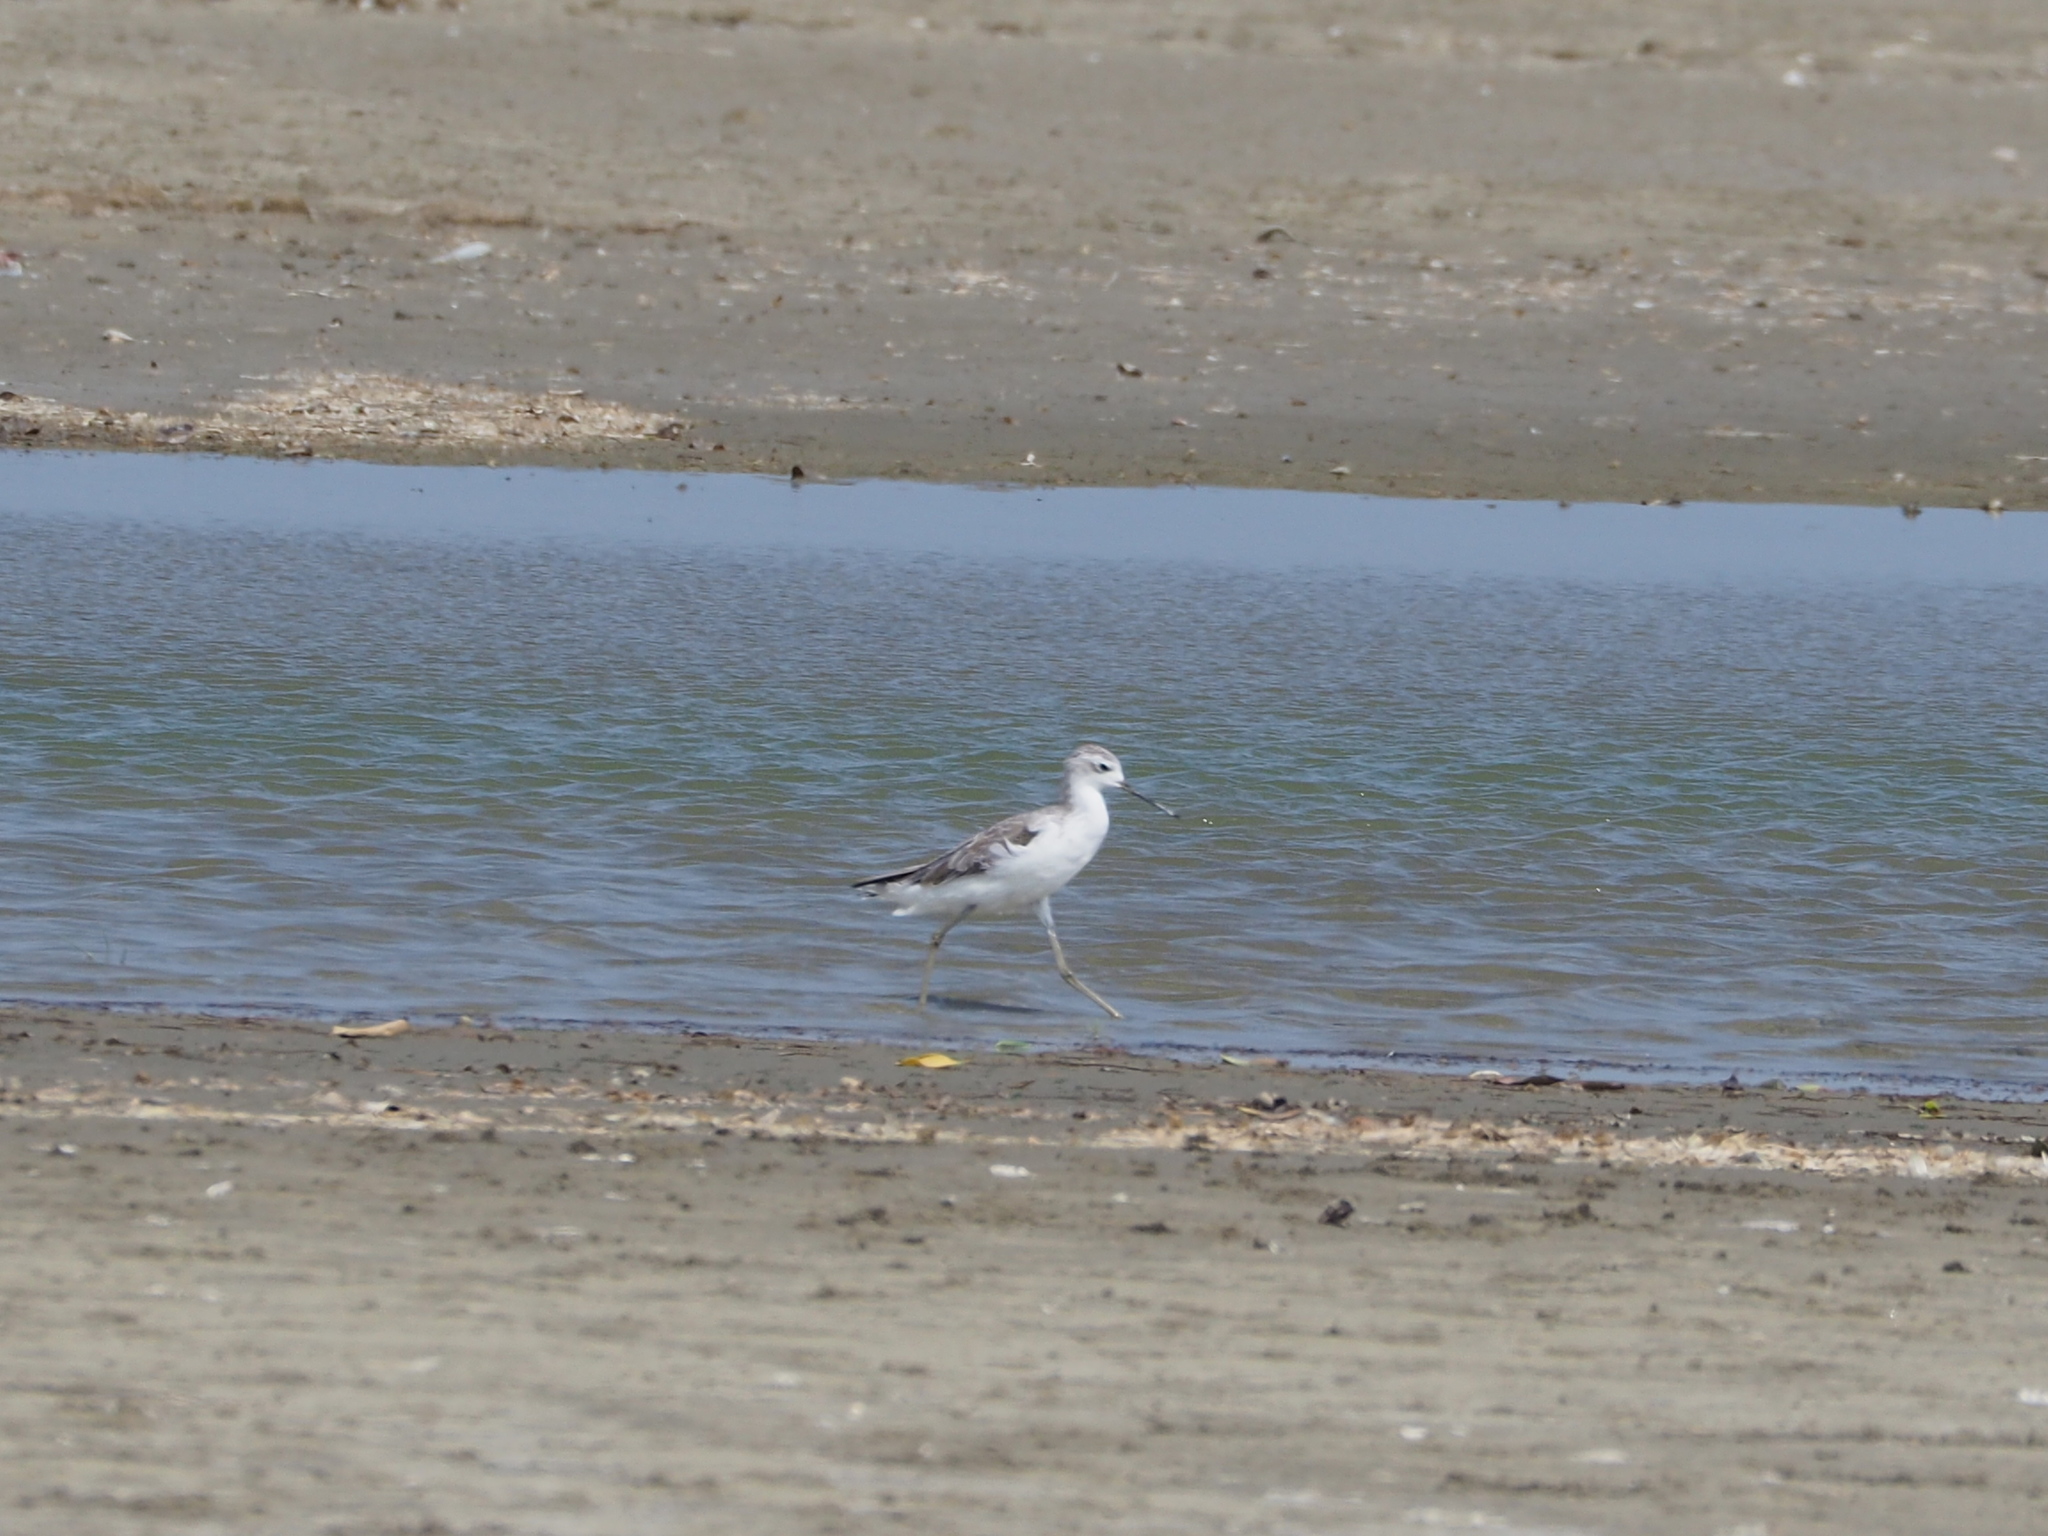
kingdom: Animalia
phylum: Chordata
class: Aves
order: Charadriiformes
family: Scolopacidae
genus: Tringa
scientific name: Tringa stagnatilis
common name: Marsh sandpiper
